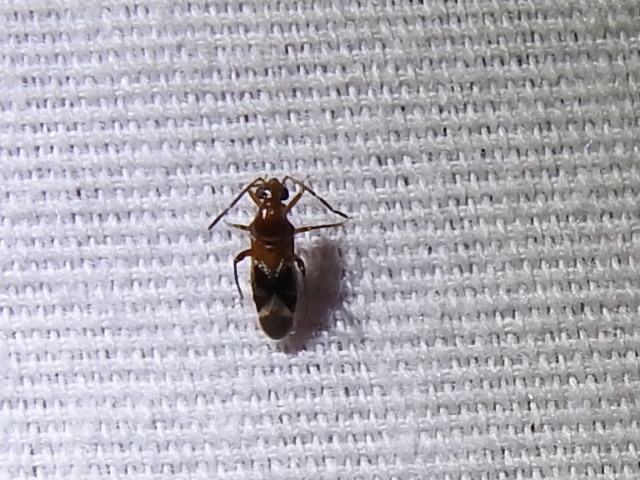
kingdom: Animalia
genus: Pilophoropsidea
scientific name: Pilophoropsidea camela
